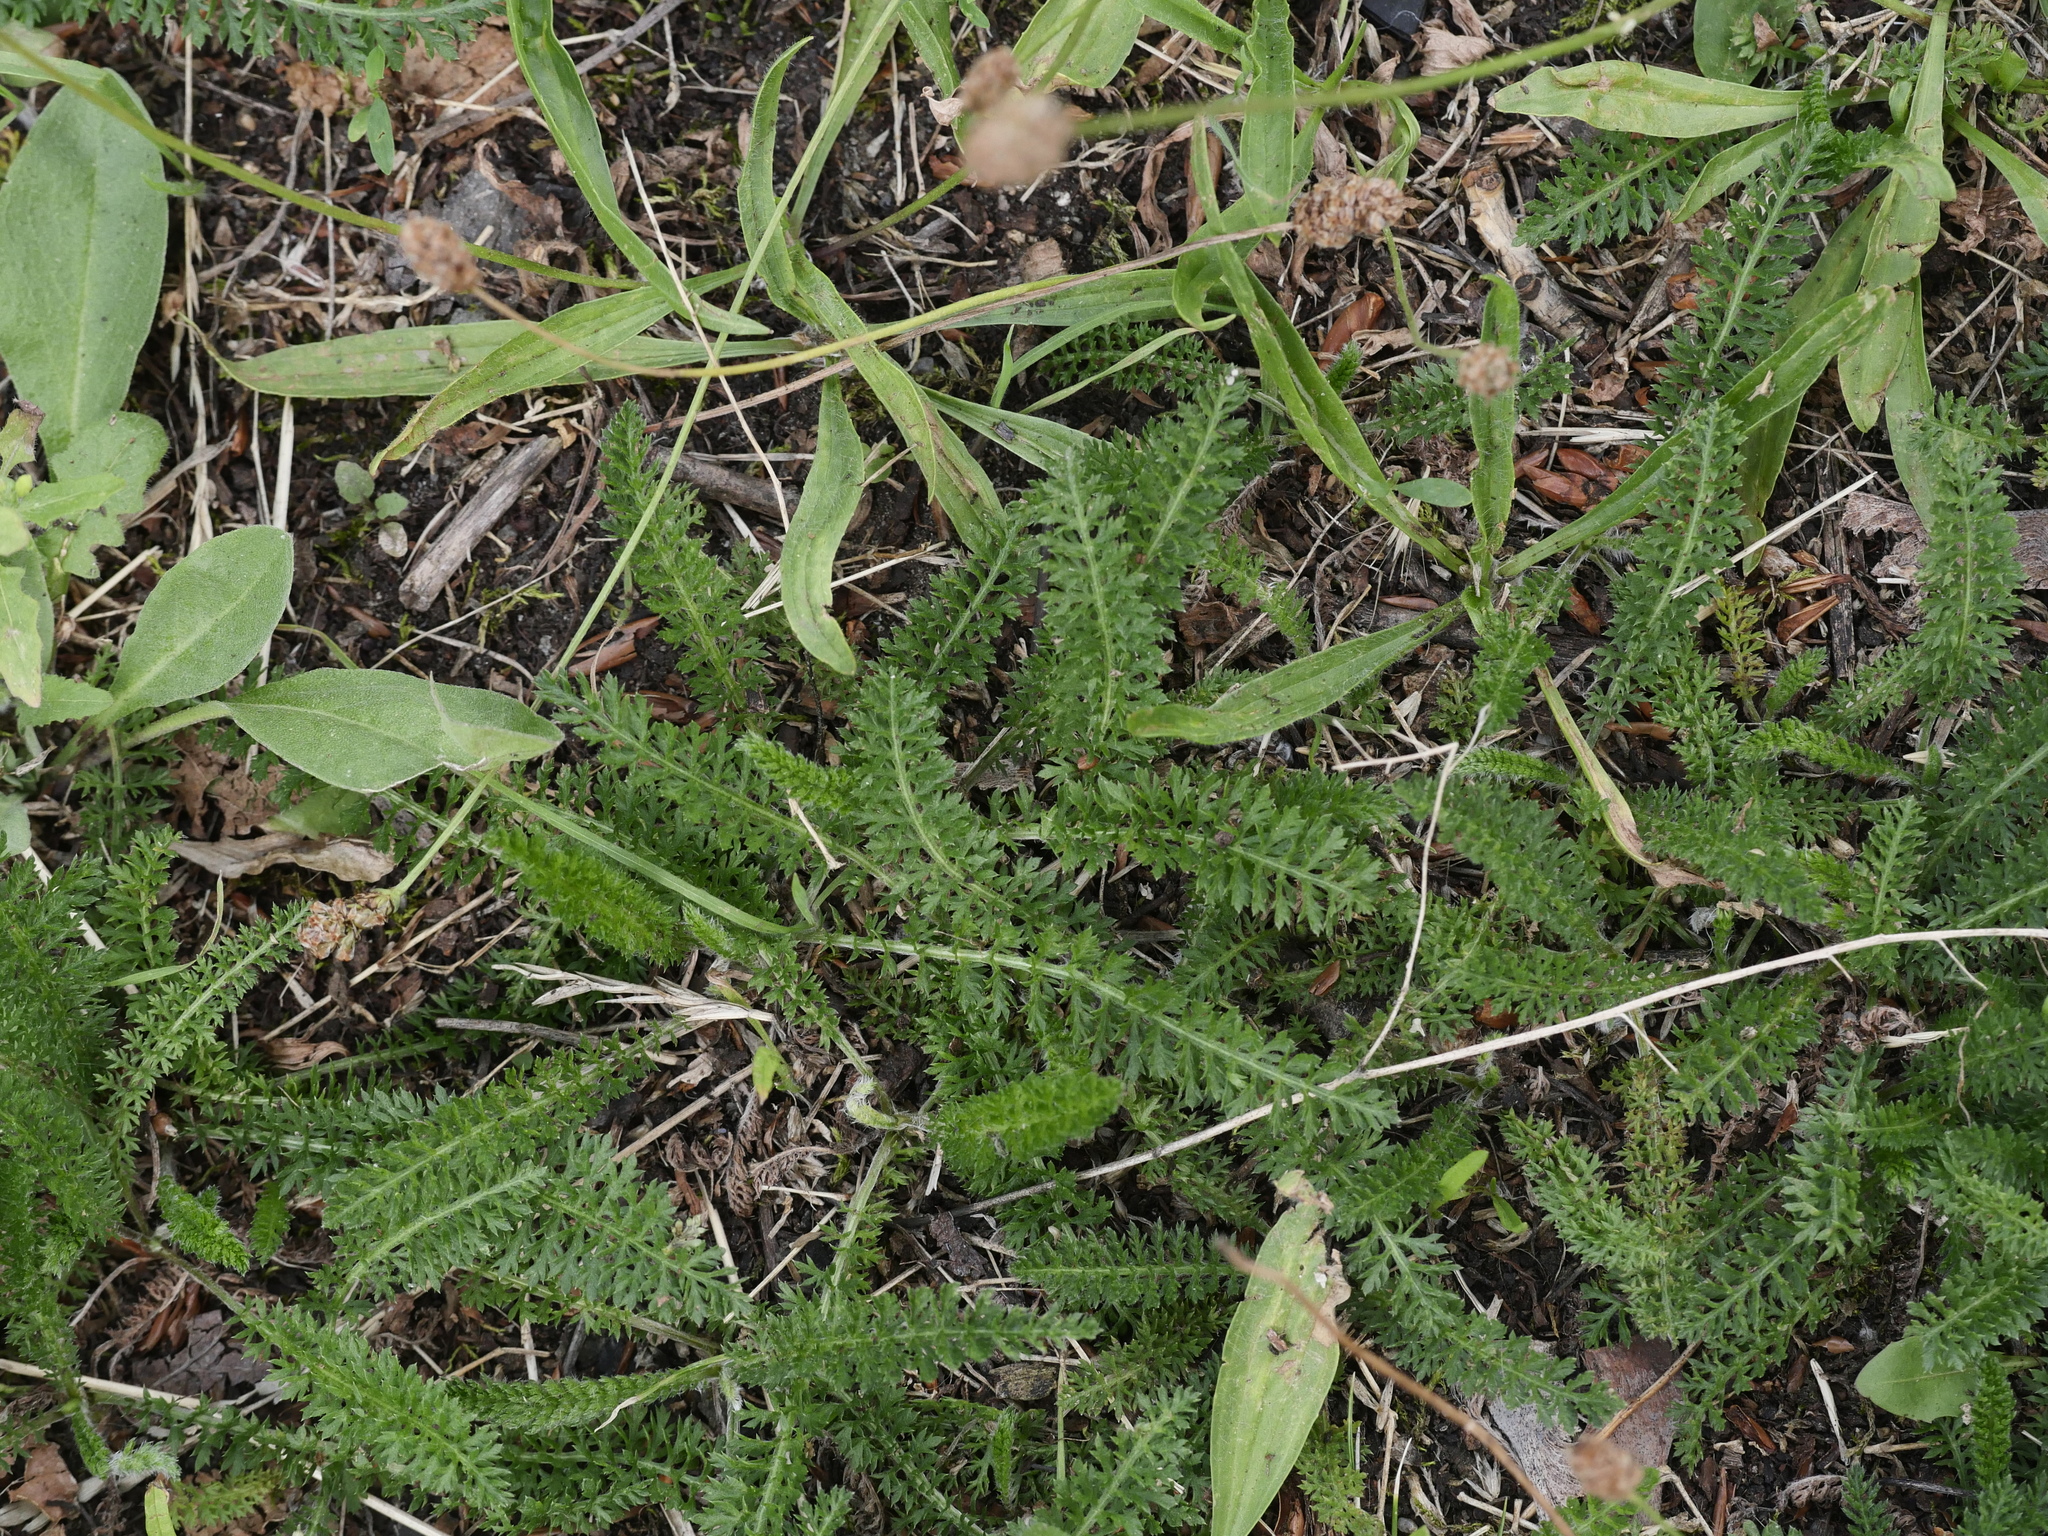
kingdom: Plantae
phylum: Tracheophyta
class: Magnoliopsida
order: Asterales
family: Asteraceae
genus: Achillea
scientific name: Achillea millefolium
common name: Yarrow
